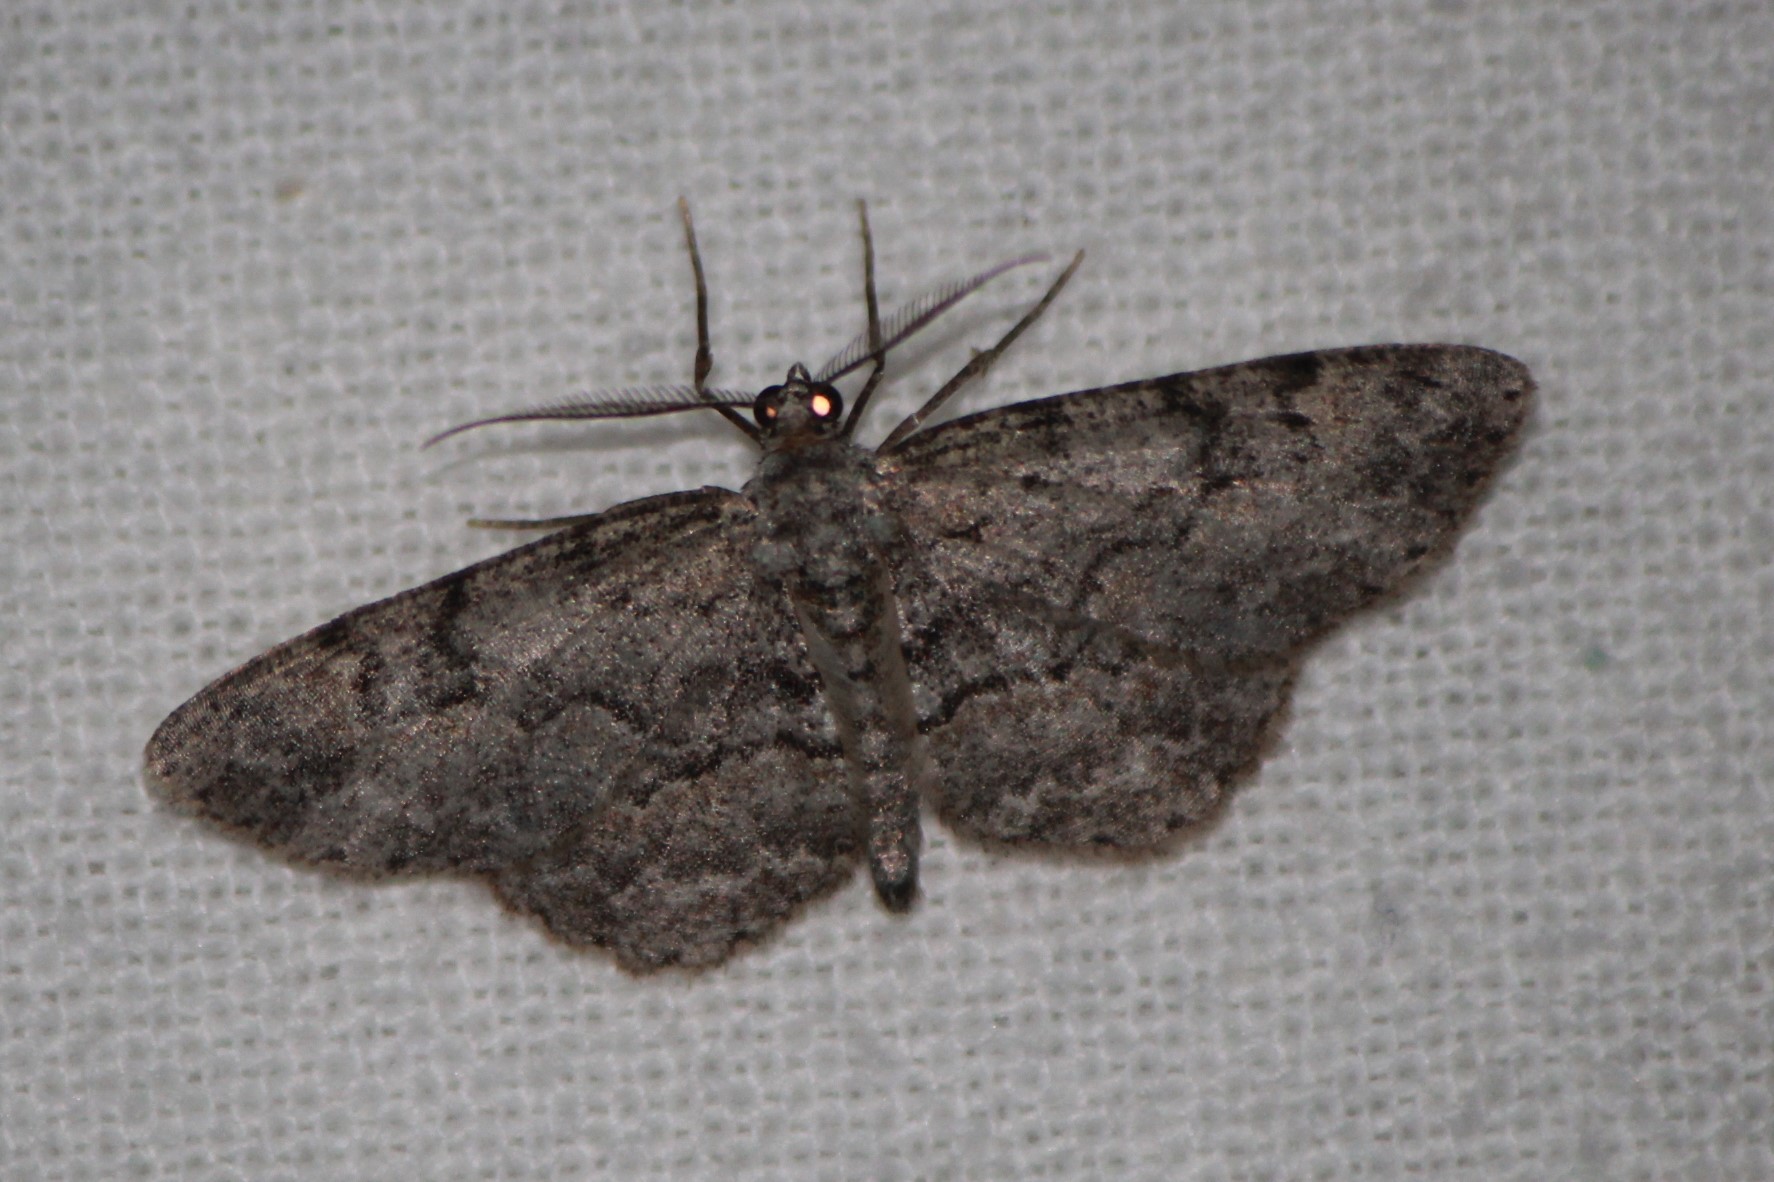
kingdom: Animalia
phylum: Arthropoda
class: Insecta
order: Lepidoptera
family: Geometridae
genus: Protoboarmia
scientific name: Protoboarmia porcelaria
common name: Porcelain gray
